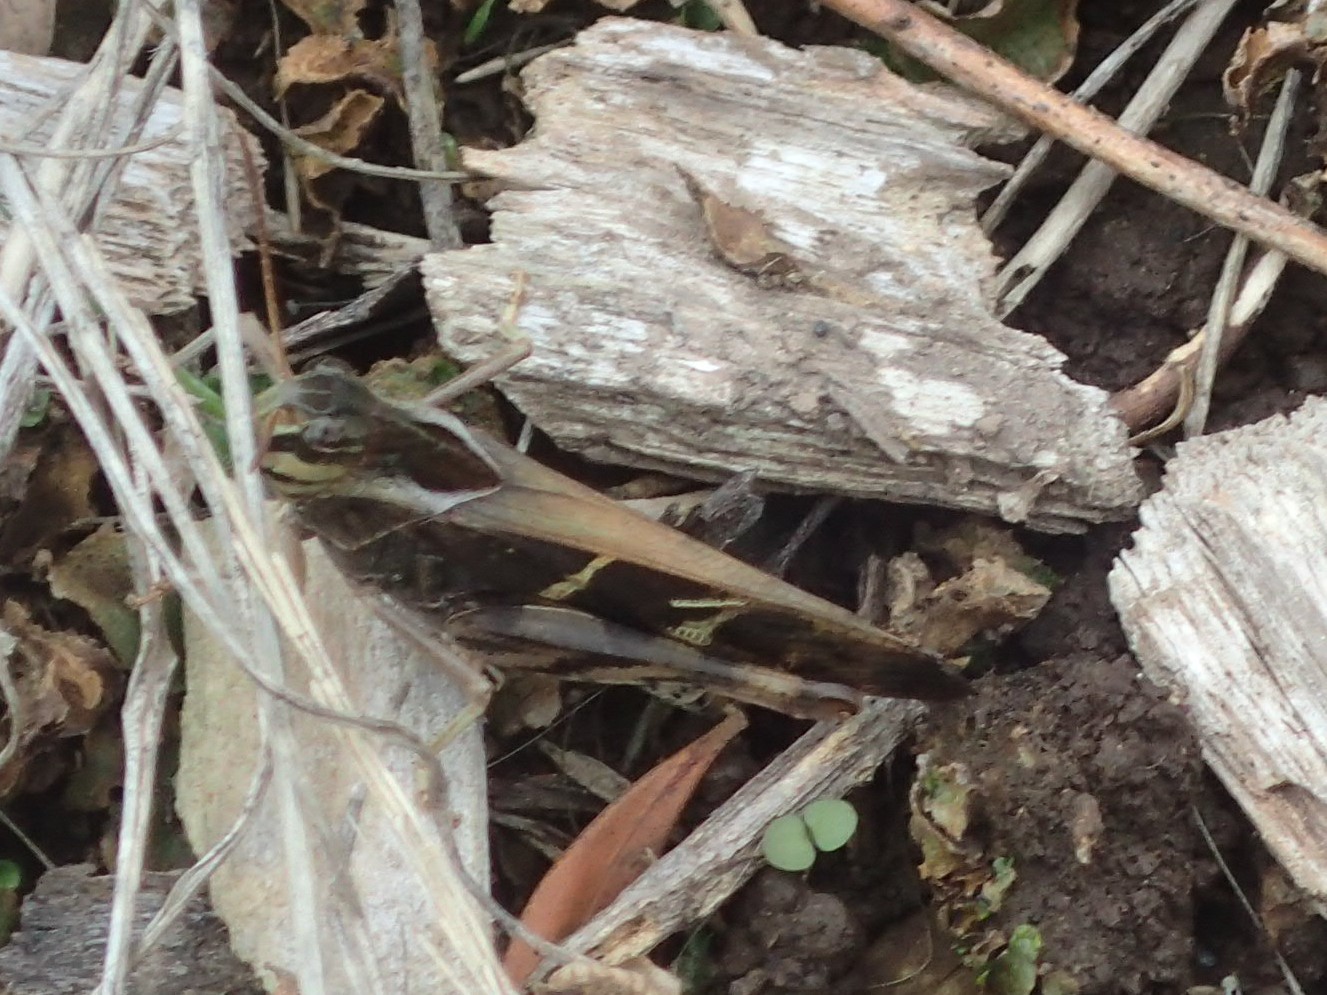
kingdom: Animalia
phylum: Arthropoda
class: Insecta
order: Orthoptera
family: Acrididae
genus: Gastrimargus
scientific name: Gastrimargus musicus
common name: Yellow-winged locust
